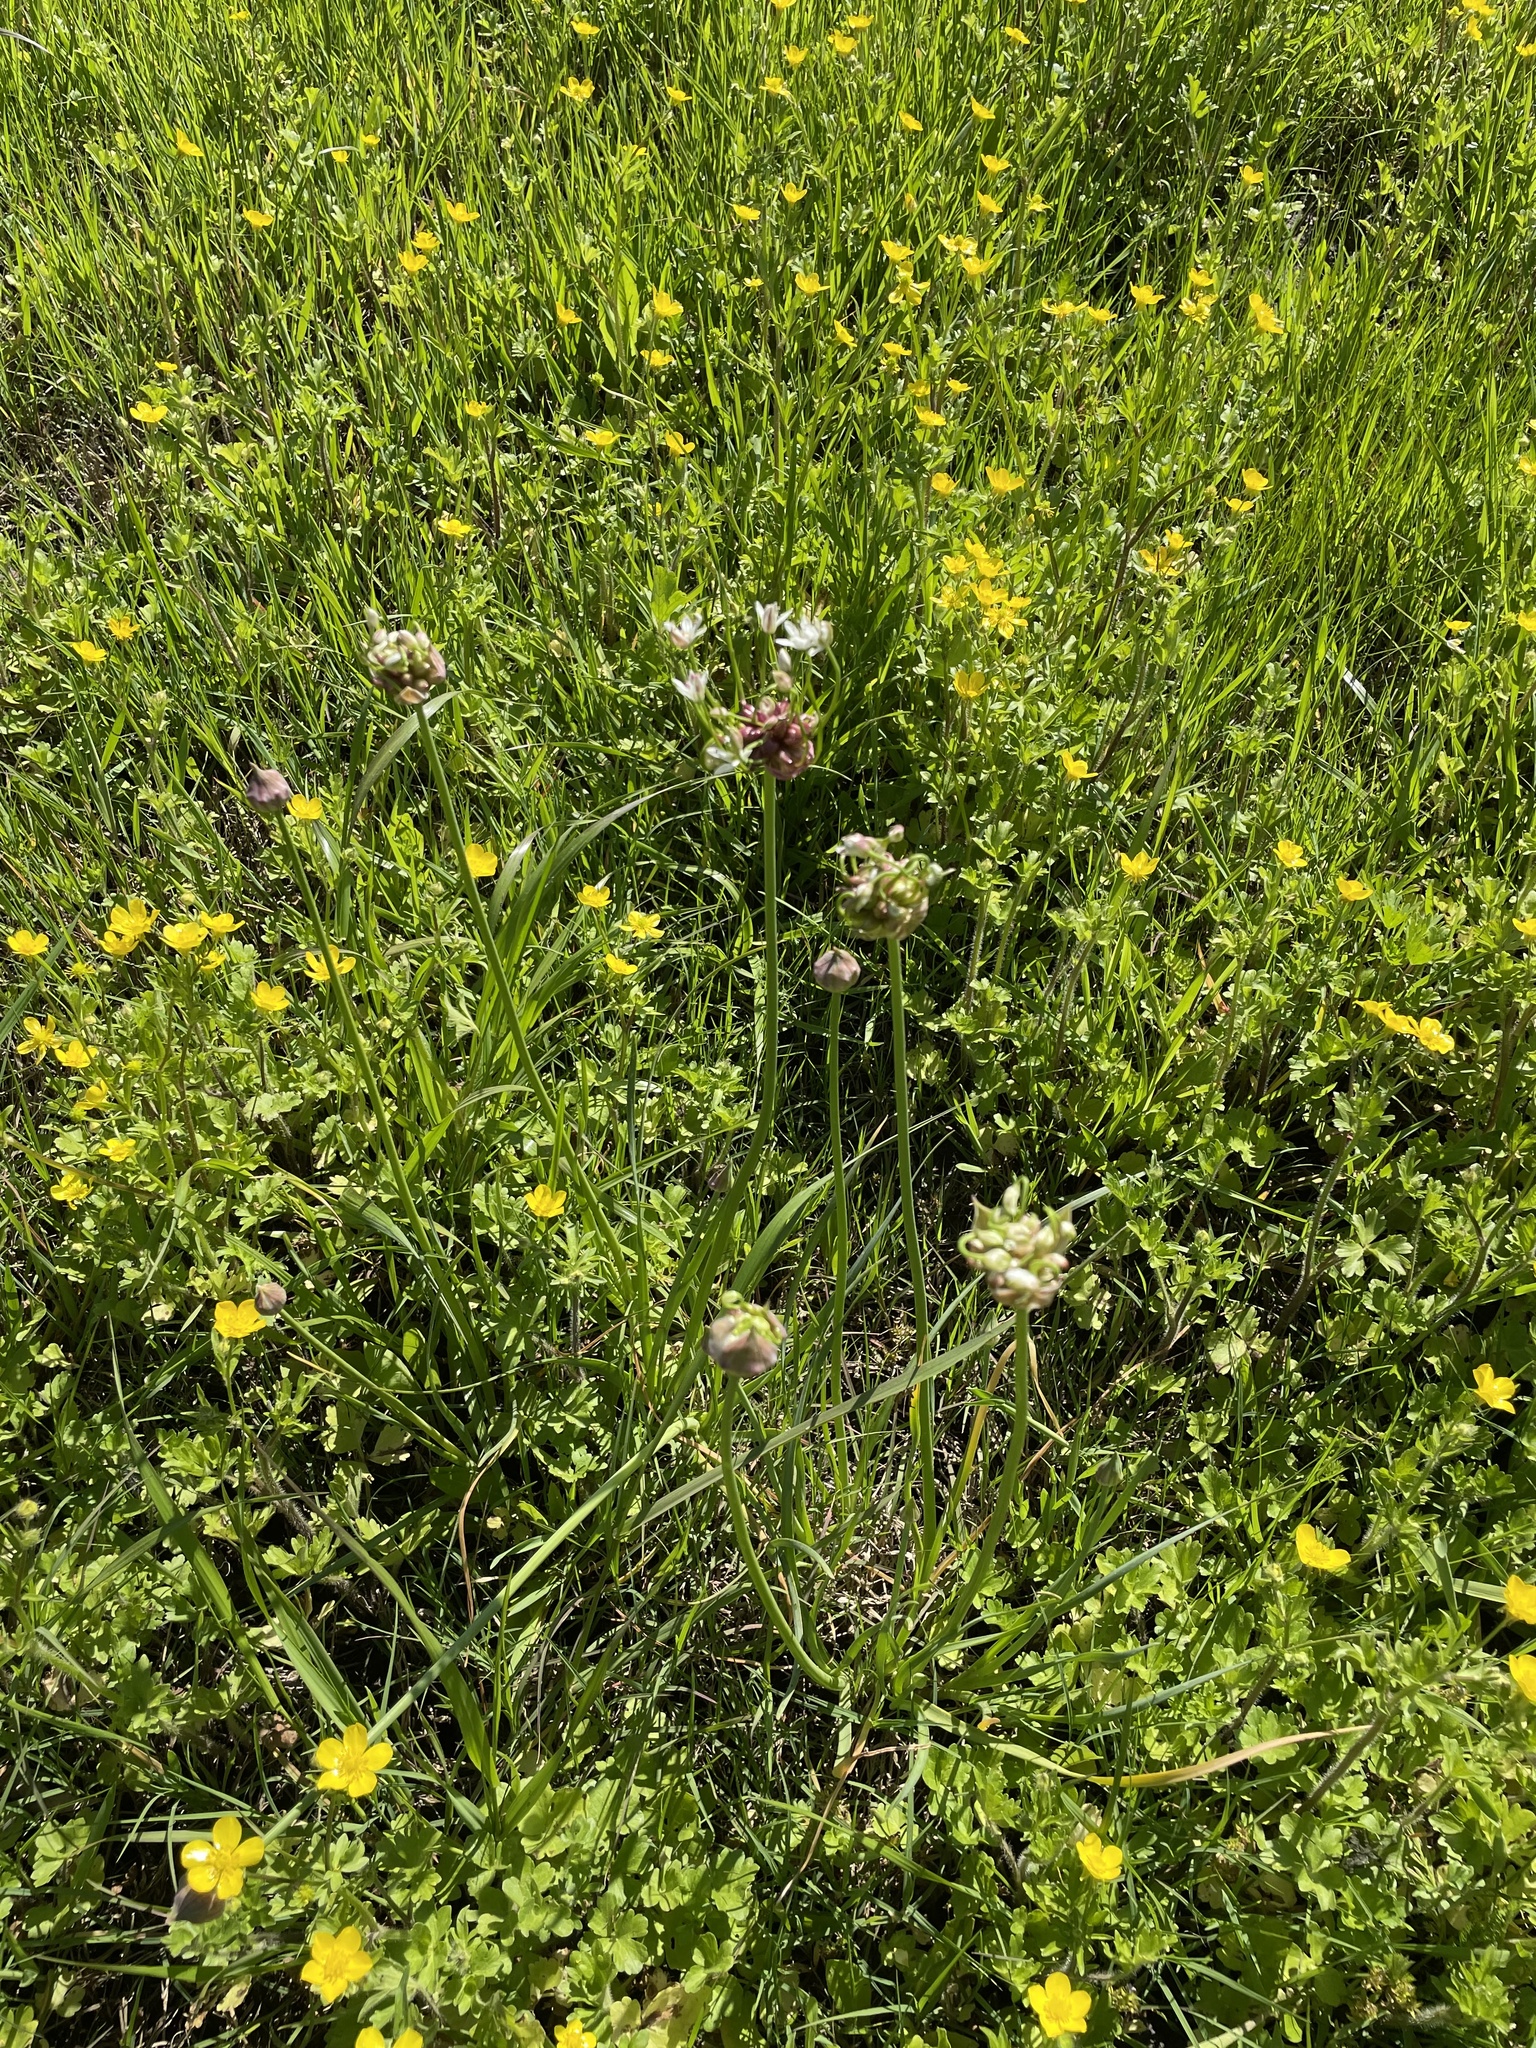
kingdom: Plantae
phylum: Tracheophyta
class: Liliopsida
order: Asparagales
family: Amaryllidaceae
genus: Allium
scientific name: Allium canadense
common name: Meadow garlic
